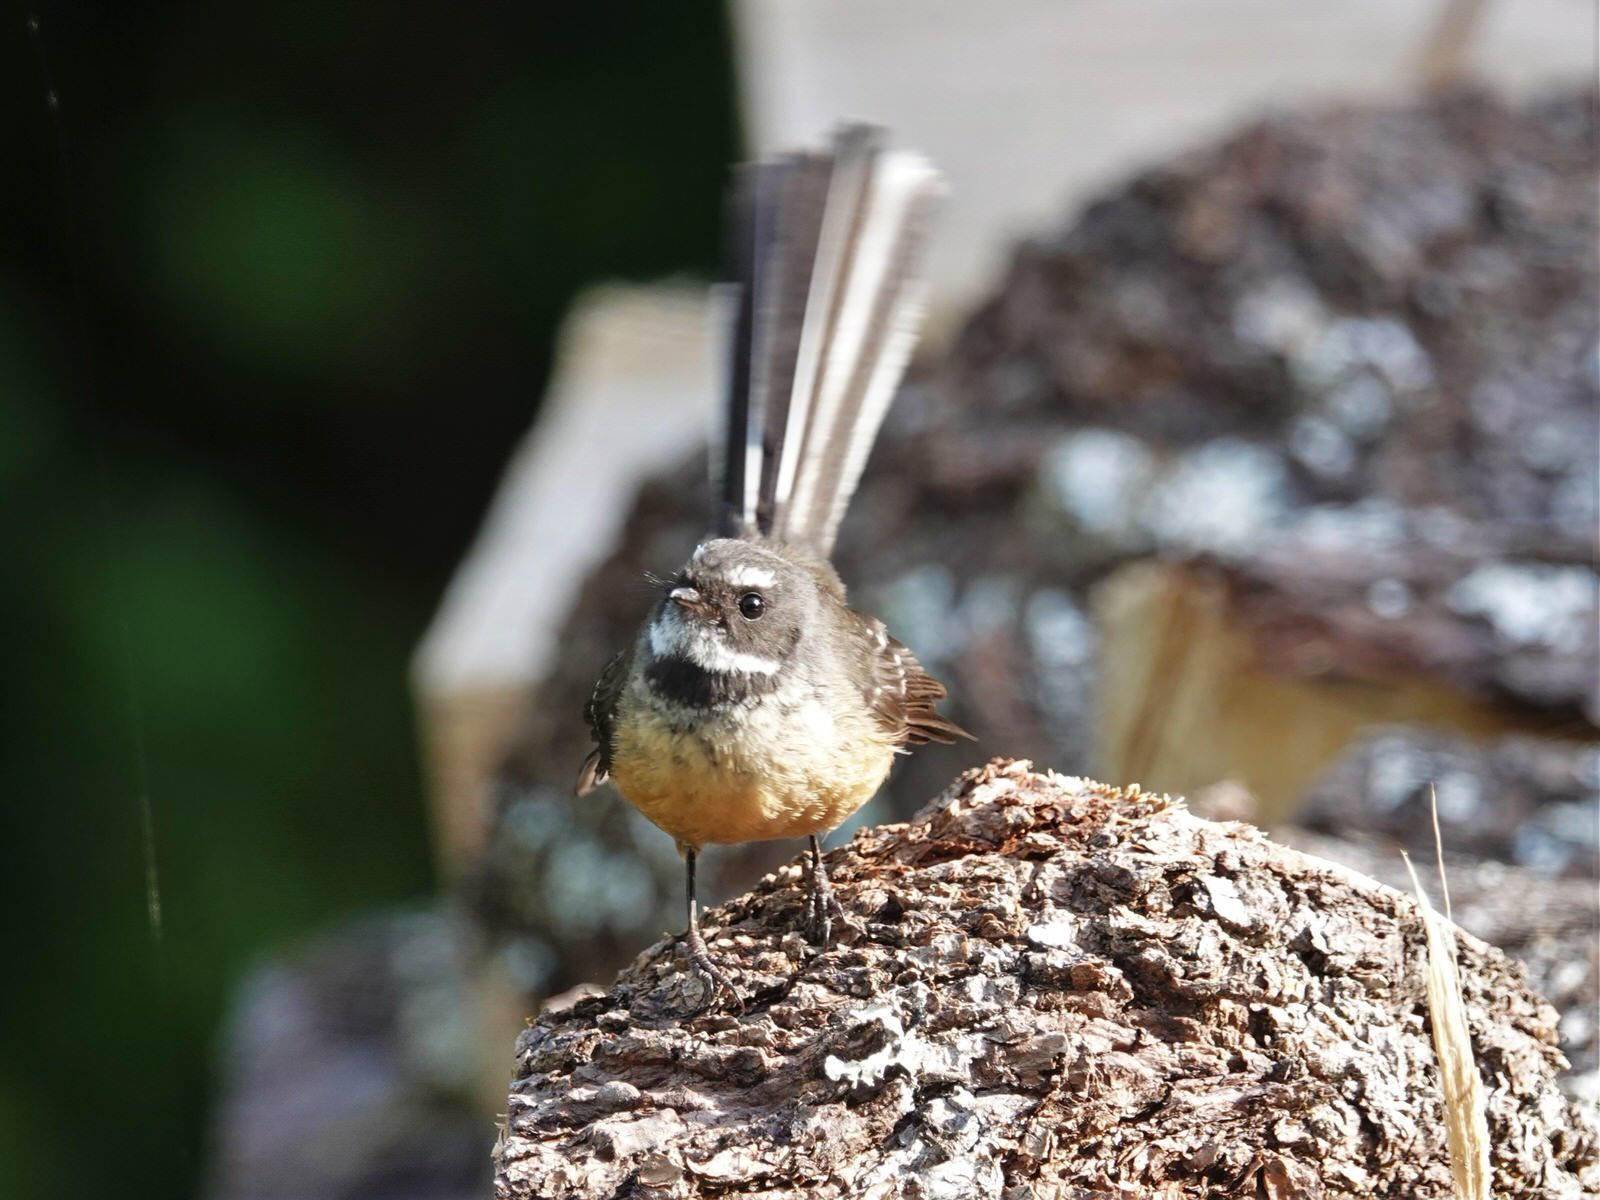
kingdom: Animalia
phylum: Chordata
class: Aves
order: Passeriformes
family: Rhipiduridae
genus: Rhipidura
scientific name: Rhipidura fuliginosa
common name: New zealand fantail
